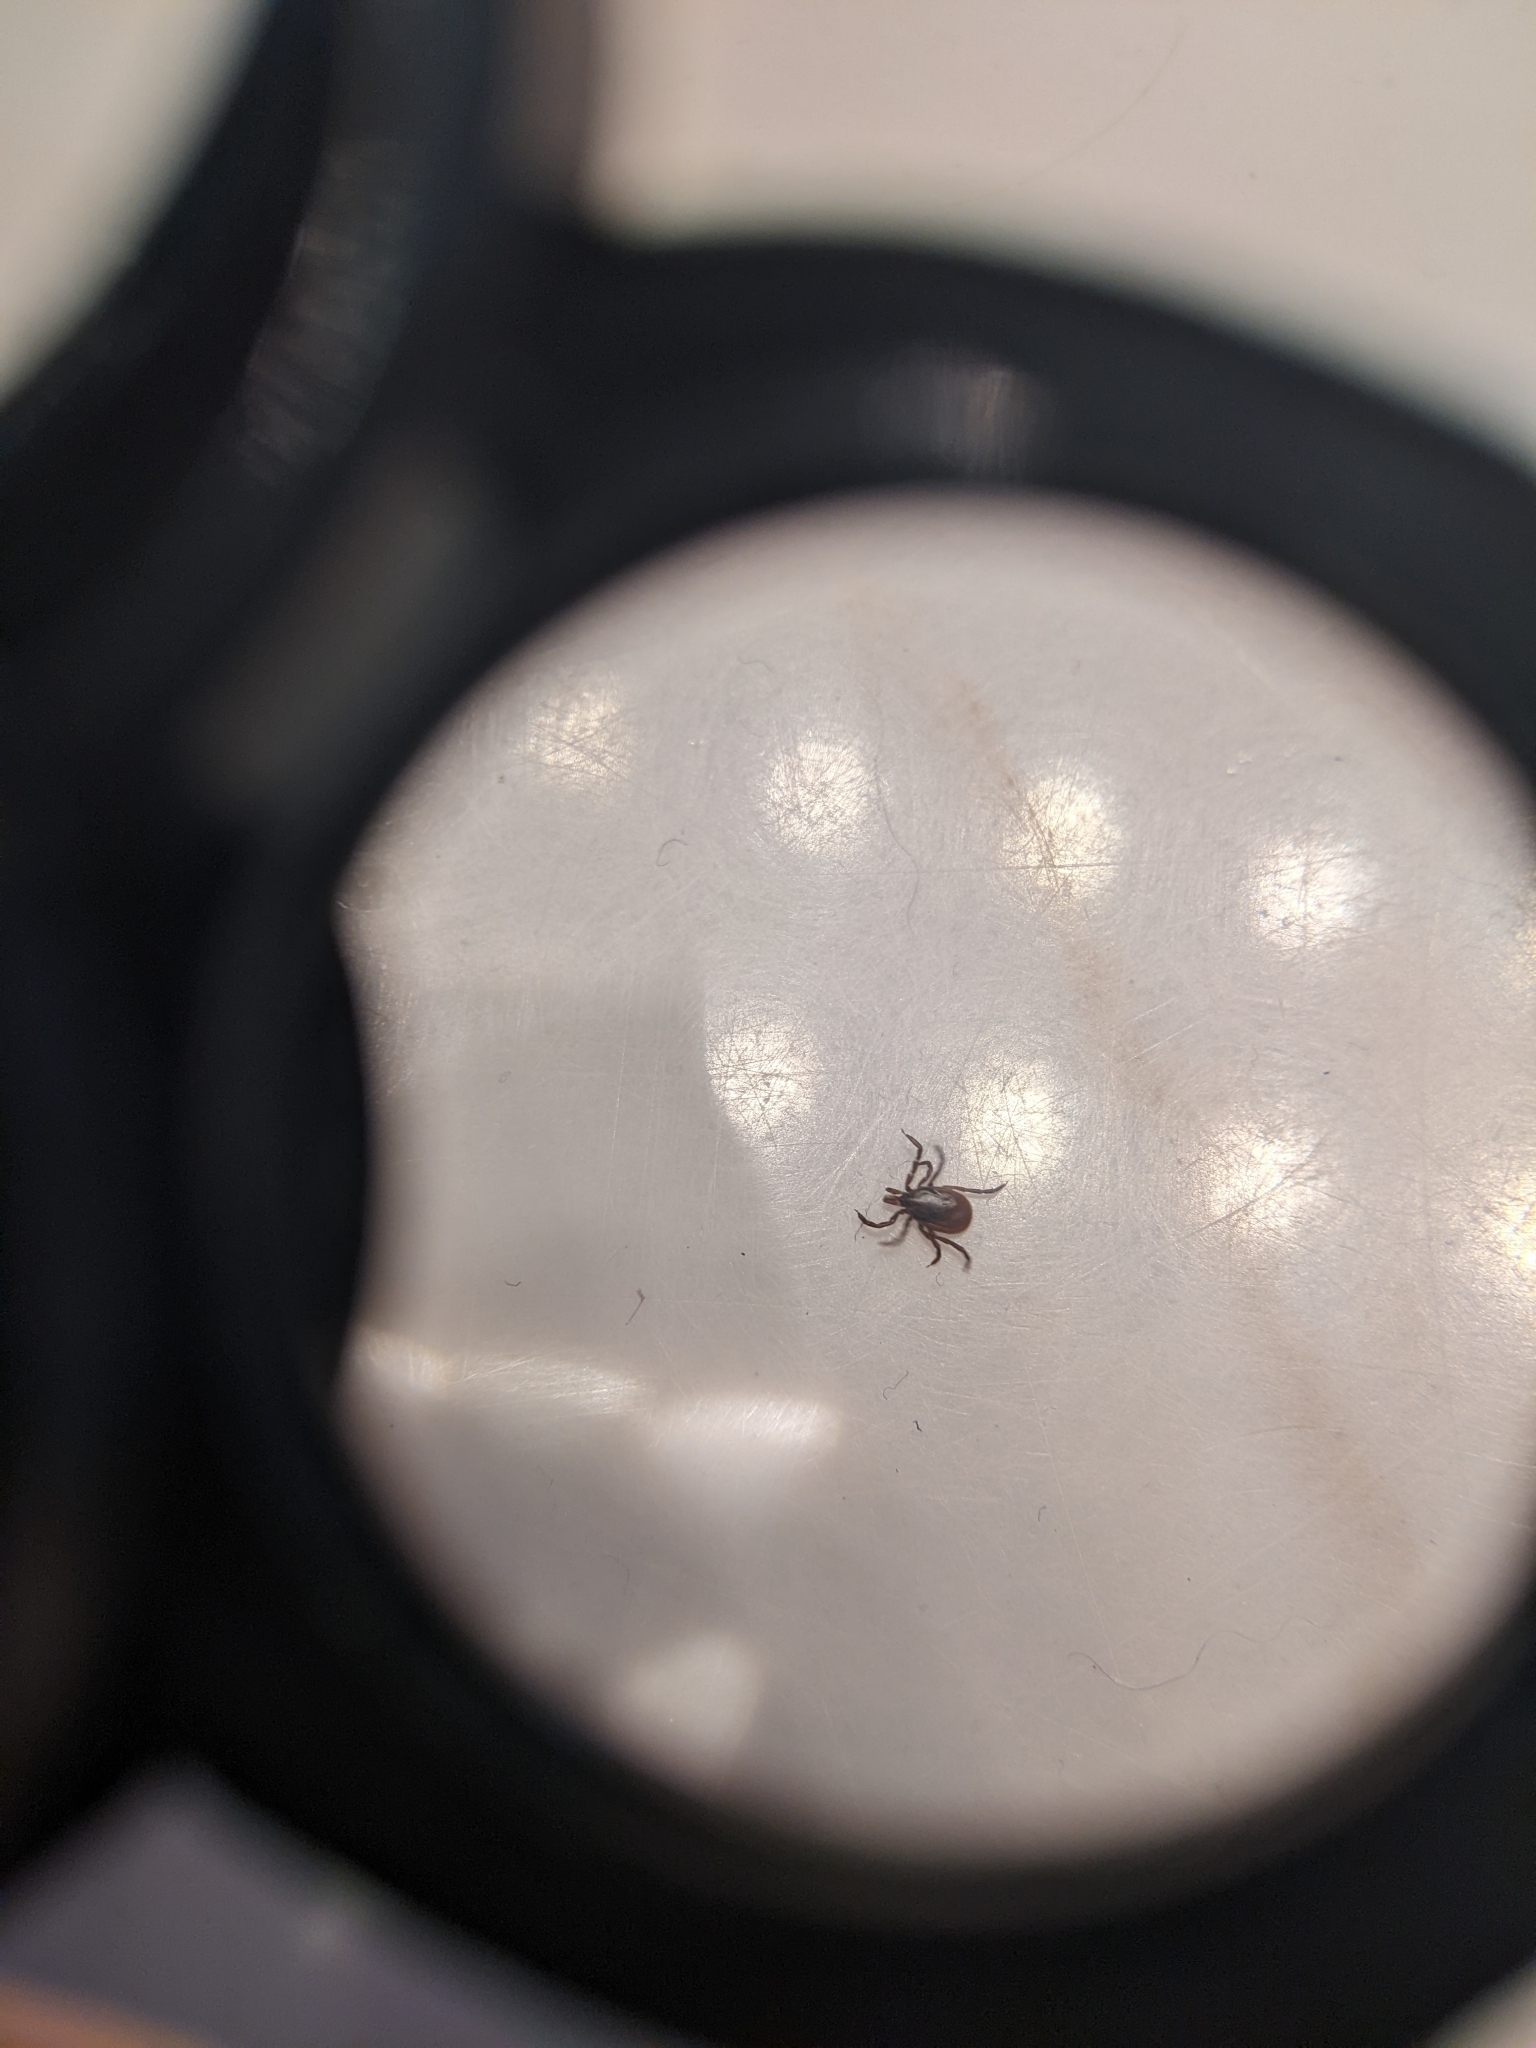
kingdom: Animalia
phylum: Arthropoda
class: Arachnida
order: Ixodida
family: Ixodidae
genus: Ixodes
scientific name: Ixodes scapularis
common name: Black legged tick
